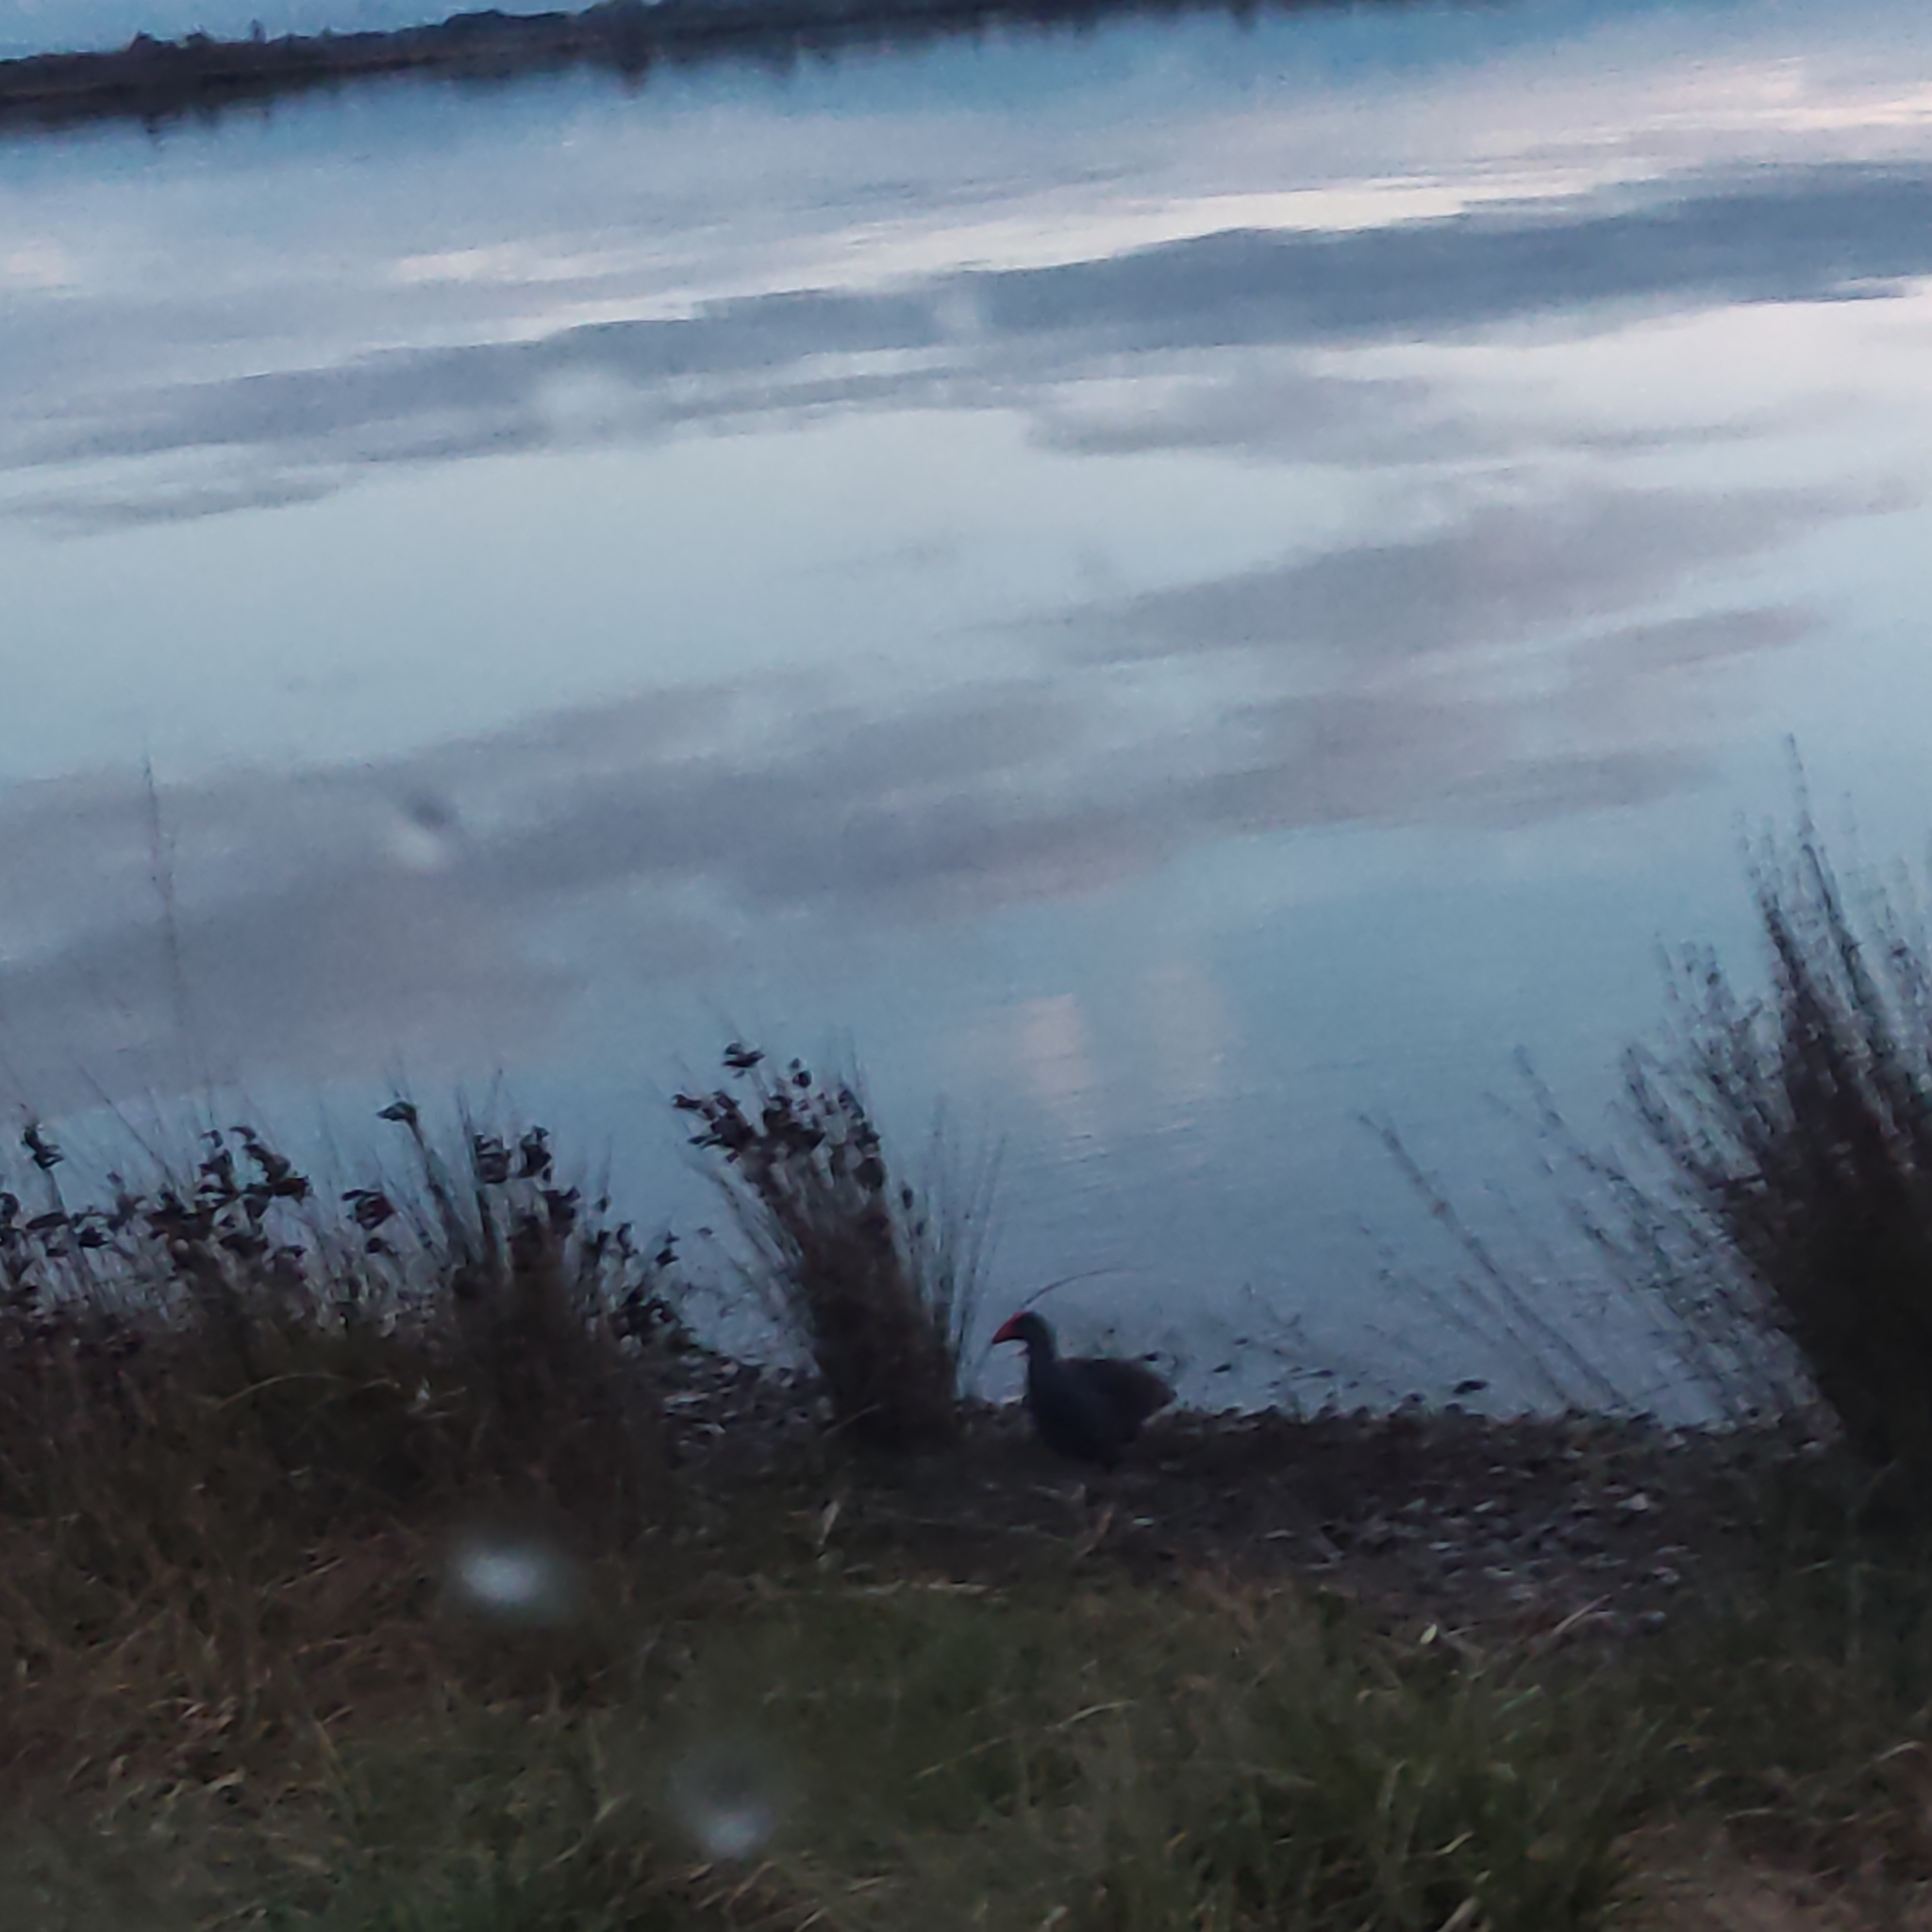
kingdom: Animalia
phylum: Chordata
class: Aves
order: Gruiformes
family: Rallidae
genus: Porphyrio
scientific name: Porphyrio melanotus
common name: Australasian swamphen
